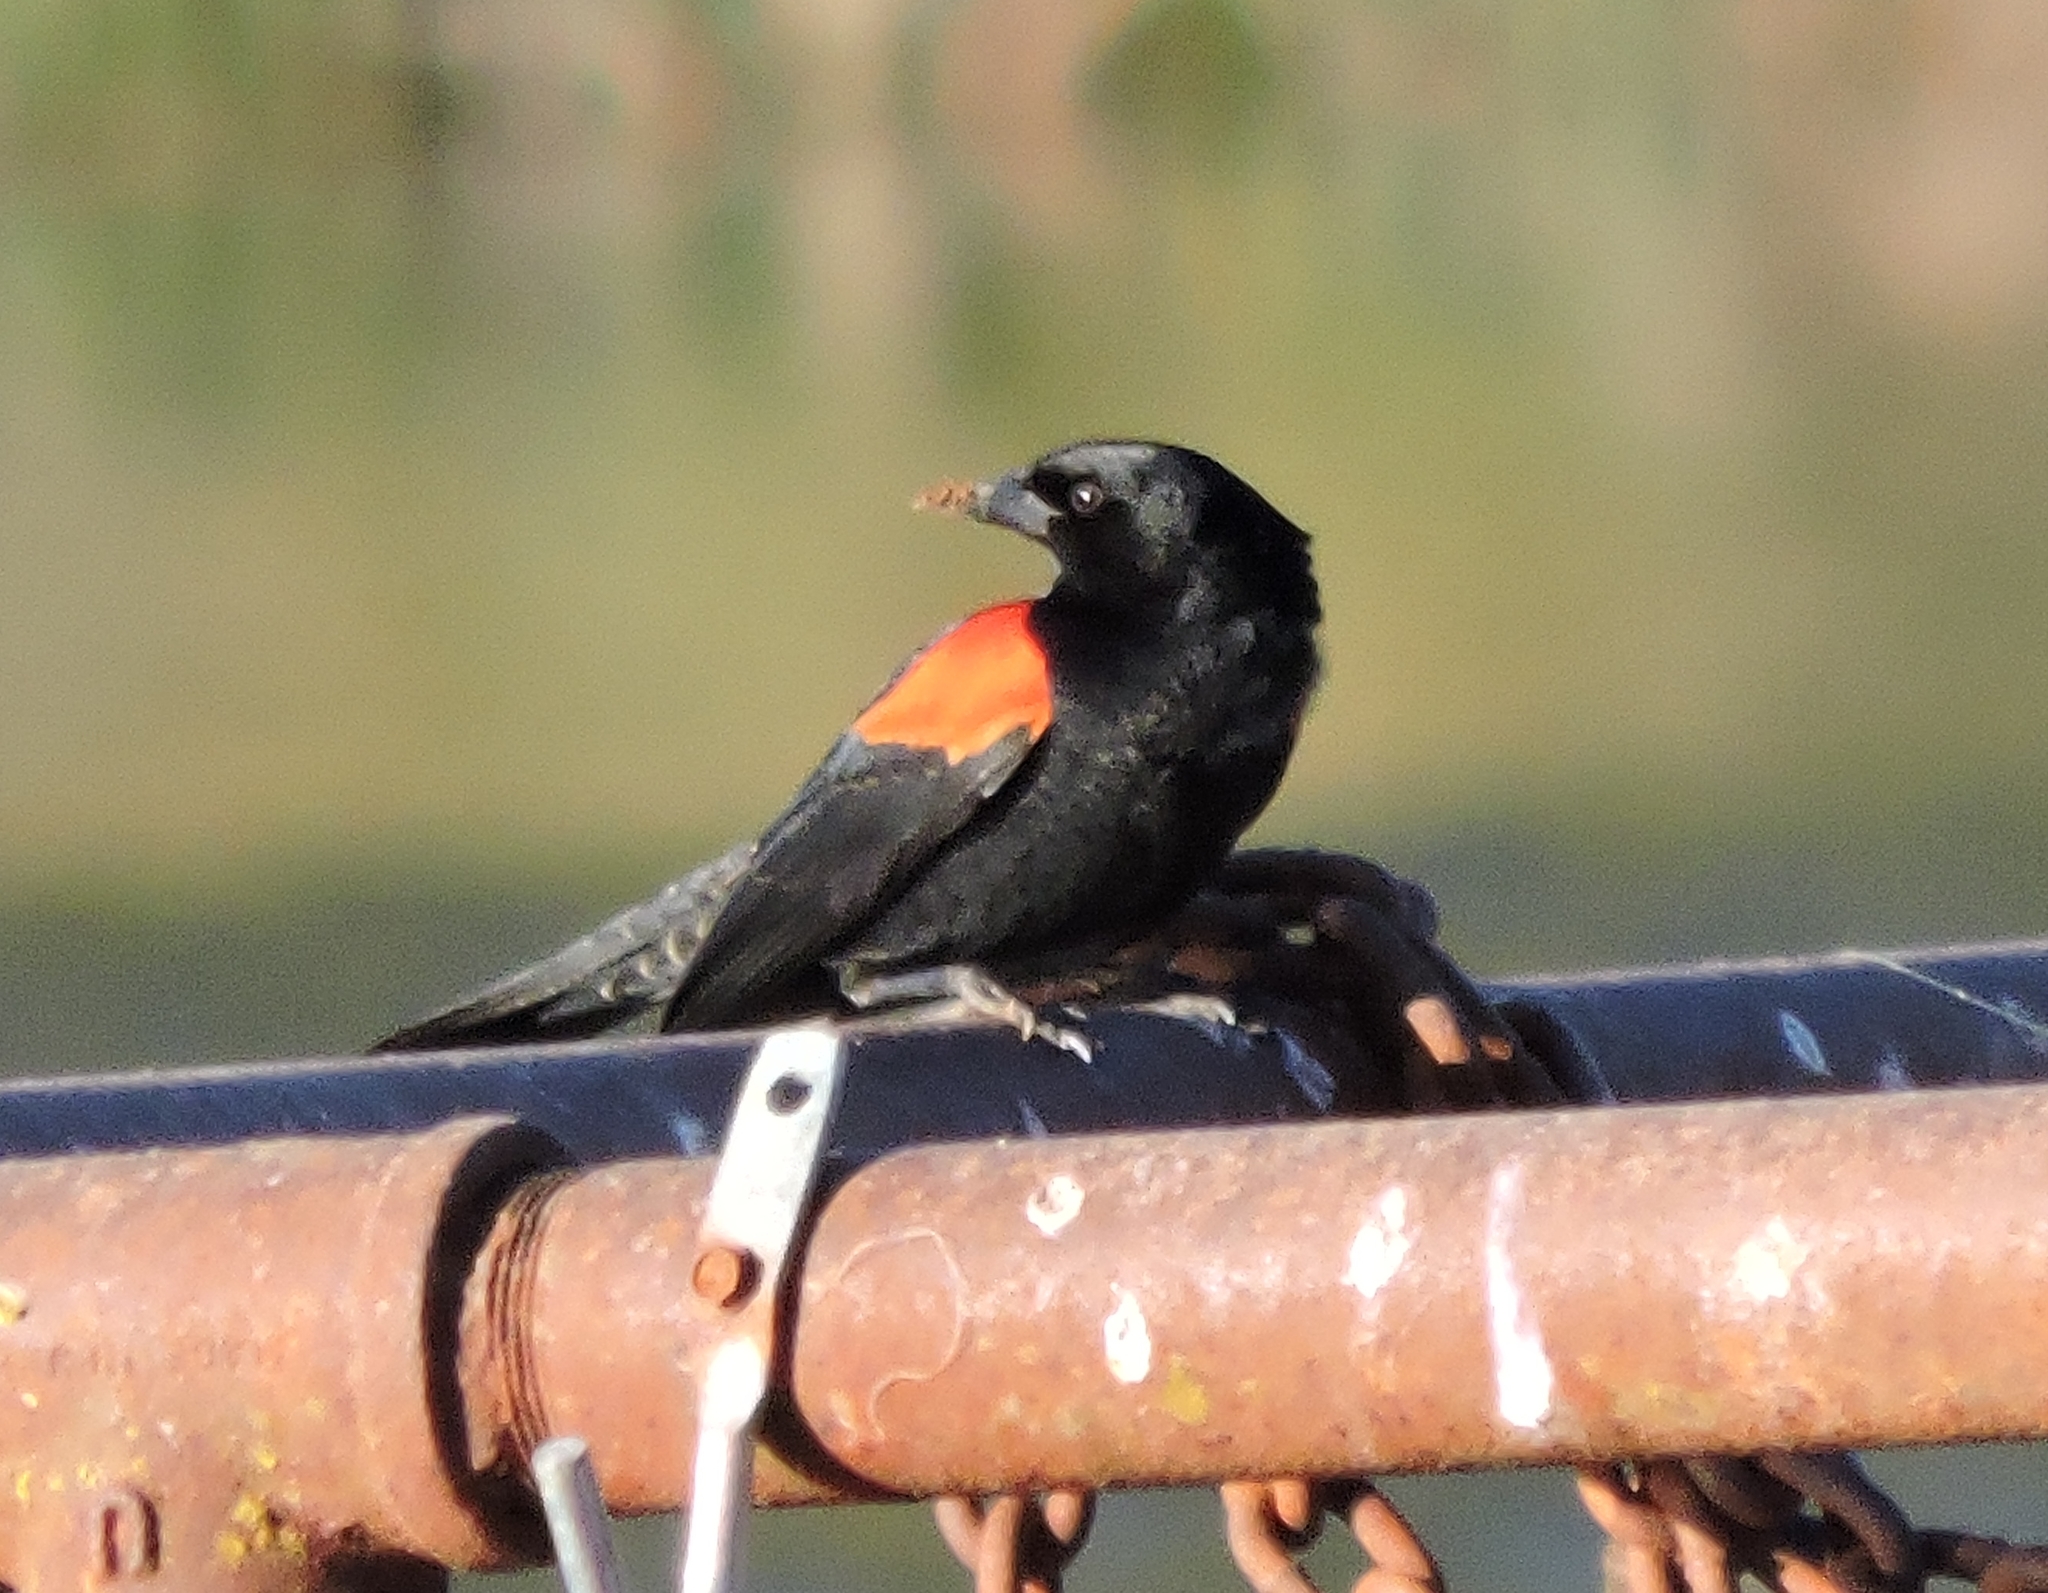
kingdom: Animalia
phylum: Chordata
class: Aves
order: Passeriformes
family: Icteridae
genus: Agelaius
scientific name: Agelaius phoeniceus
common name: Red-winged blackbird
